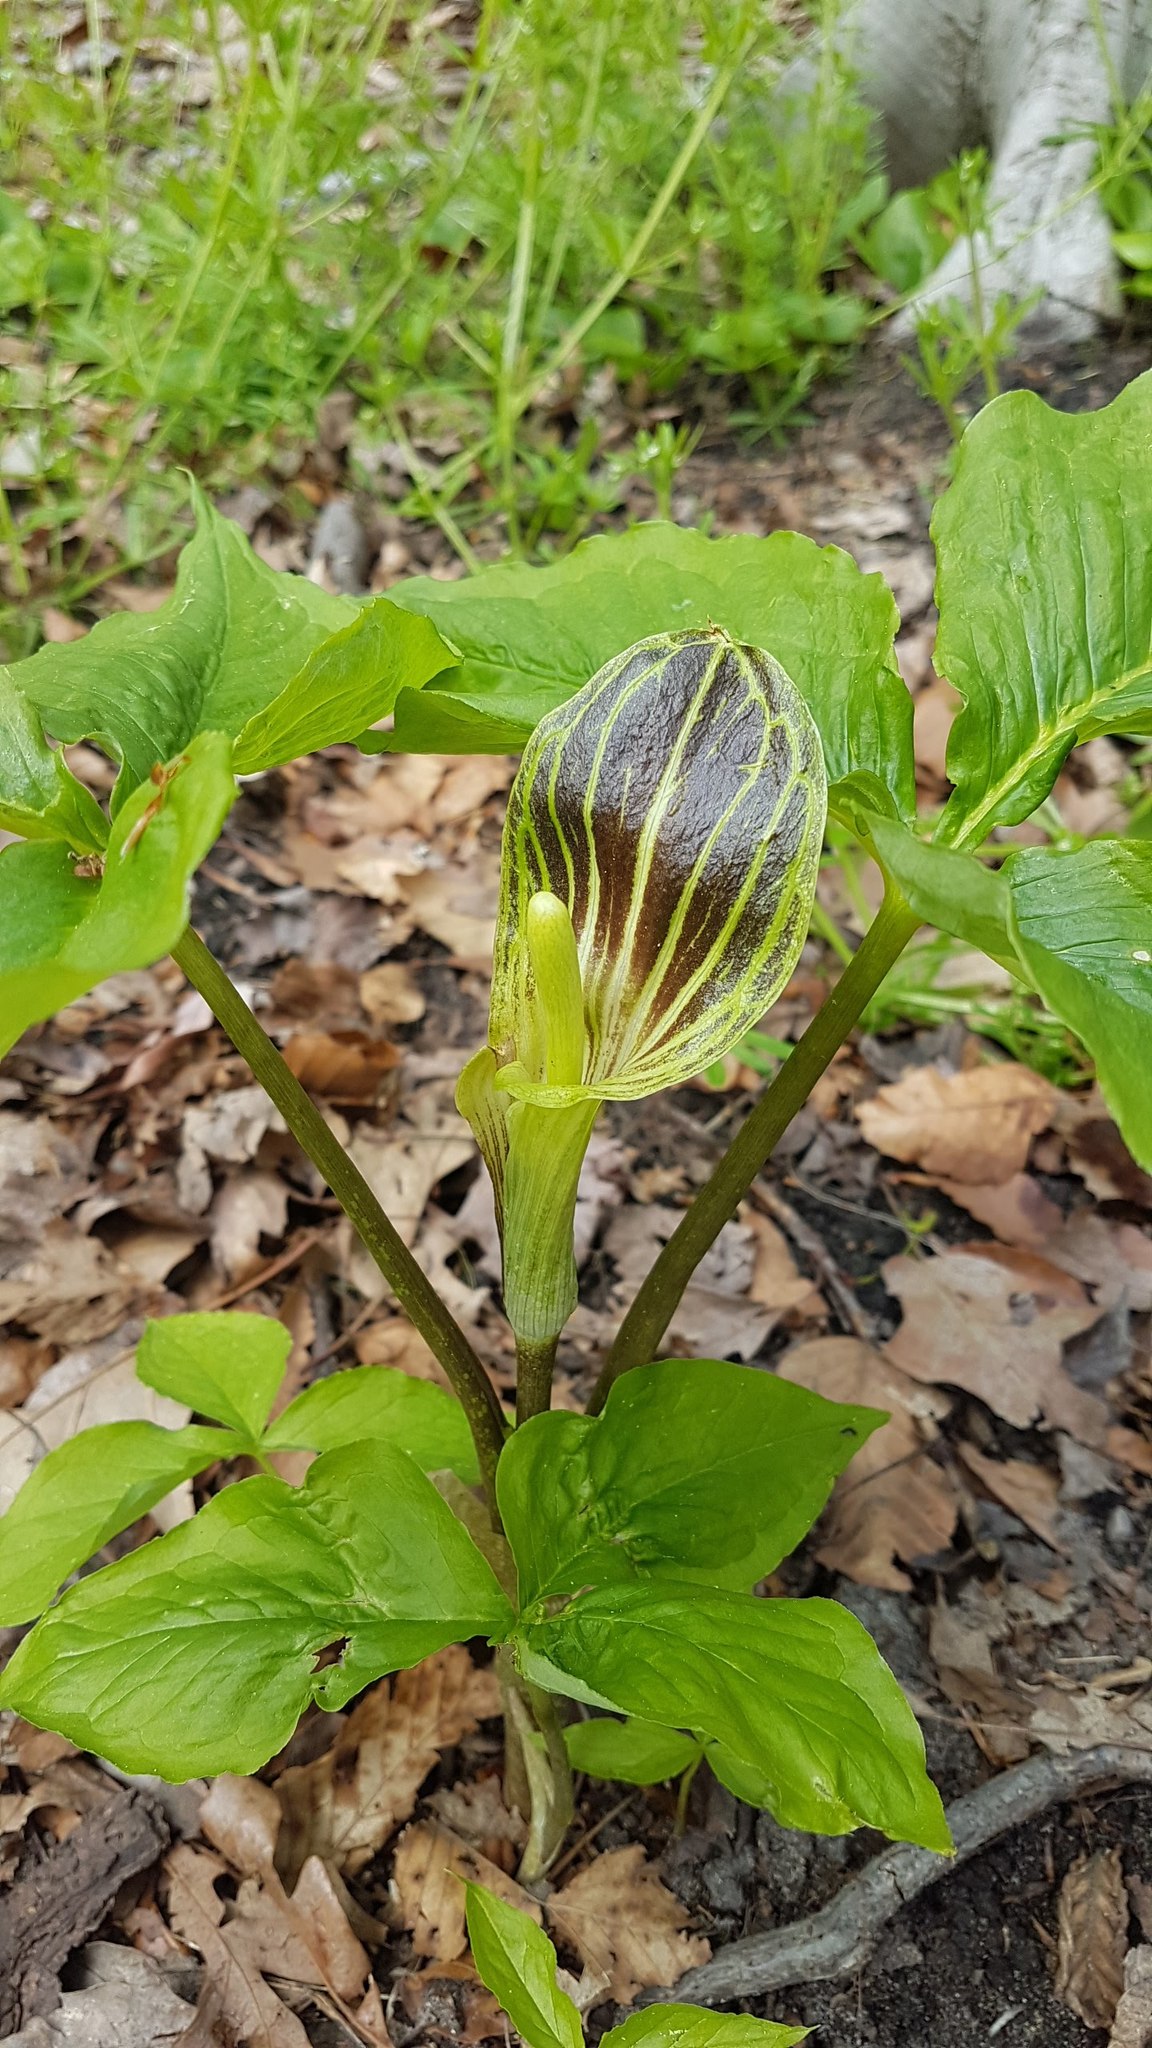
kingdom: Plantae
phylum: Tracheophyta
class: Liliopsida
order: Alismatales
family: Araceae
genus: Arisaema
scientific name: Arisaema triphyllum
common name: Jack-in-the-pulpit
